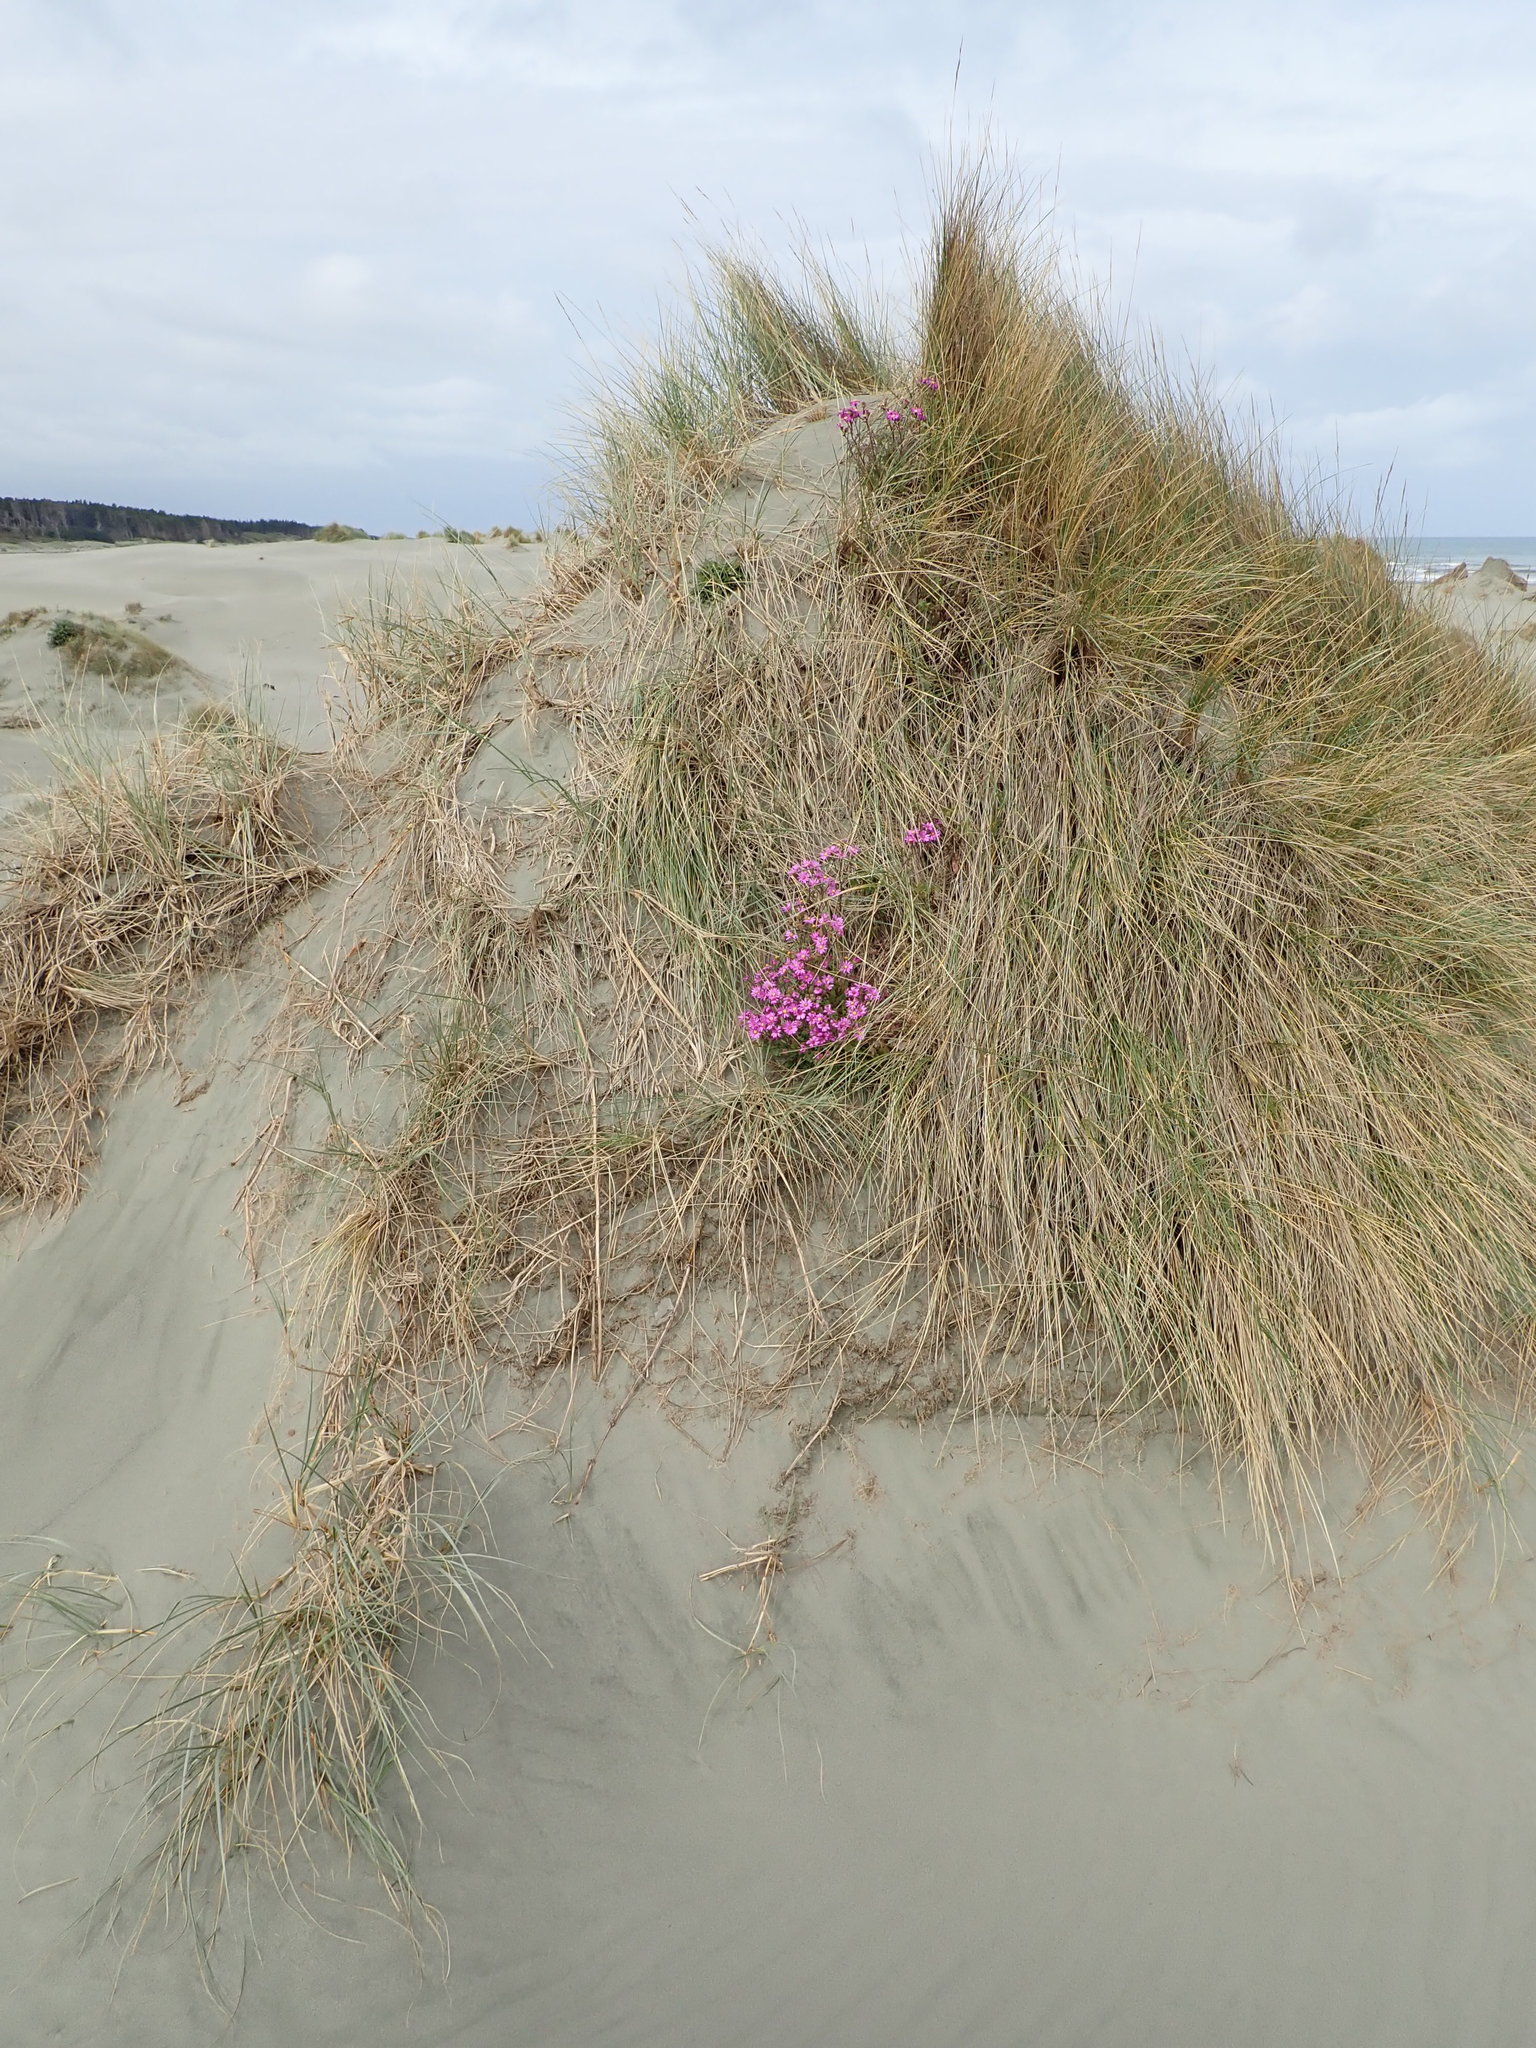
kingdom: Plantae
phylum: Tracheophyta
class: Magnoliopsida
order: Asterales
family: Asteraceae
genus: Senecio
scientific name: Senecio elegans
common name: Purple groundsel
